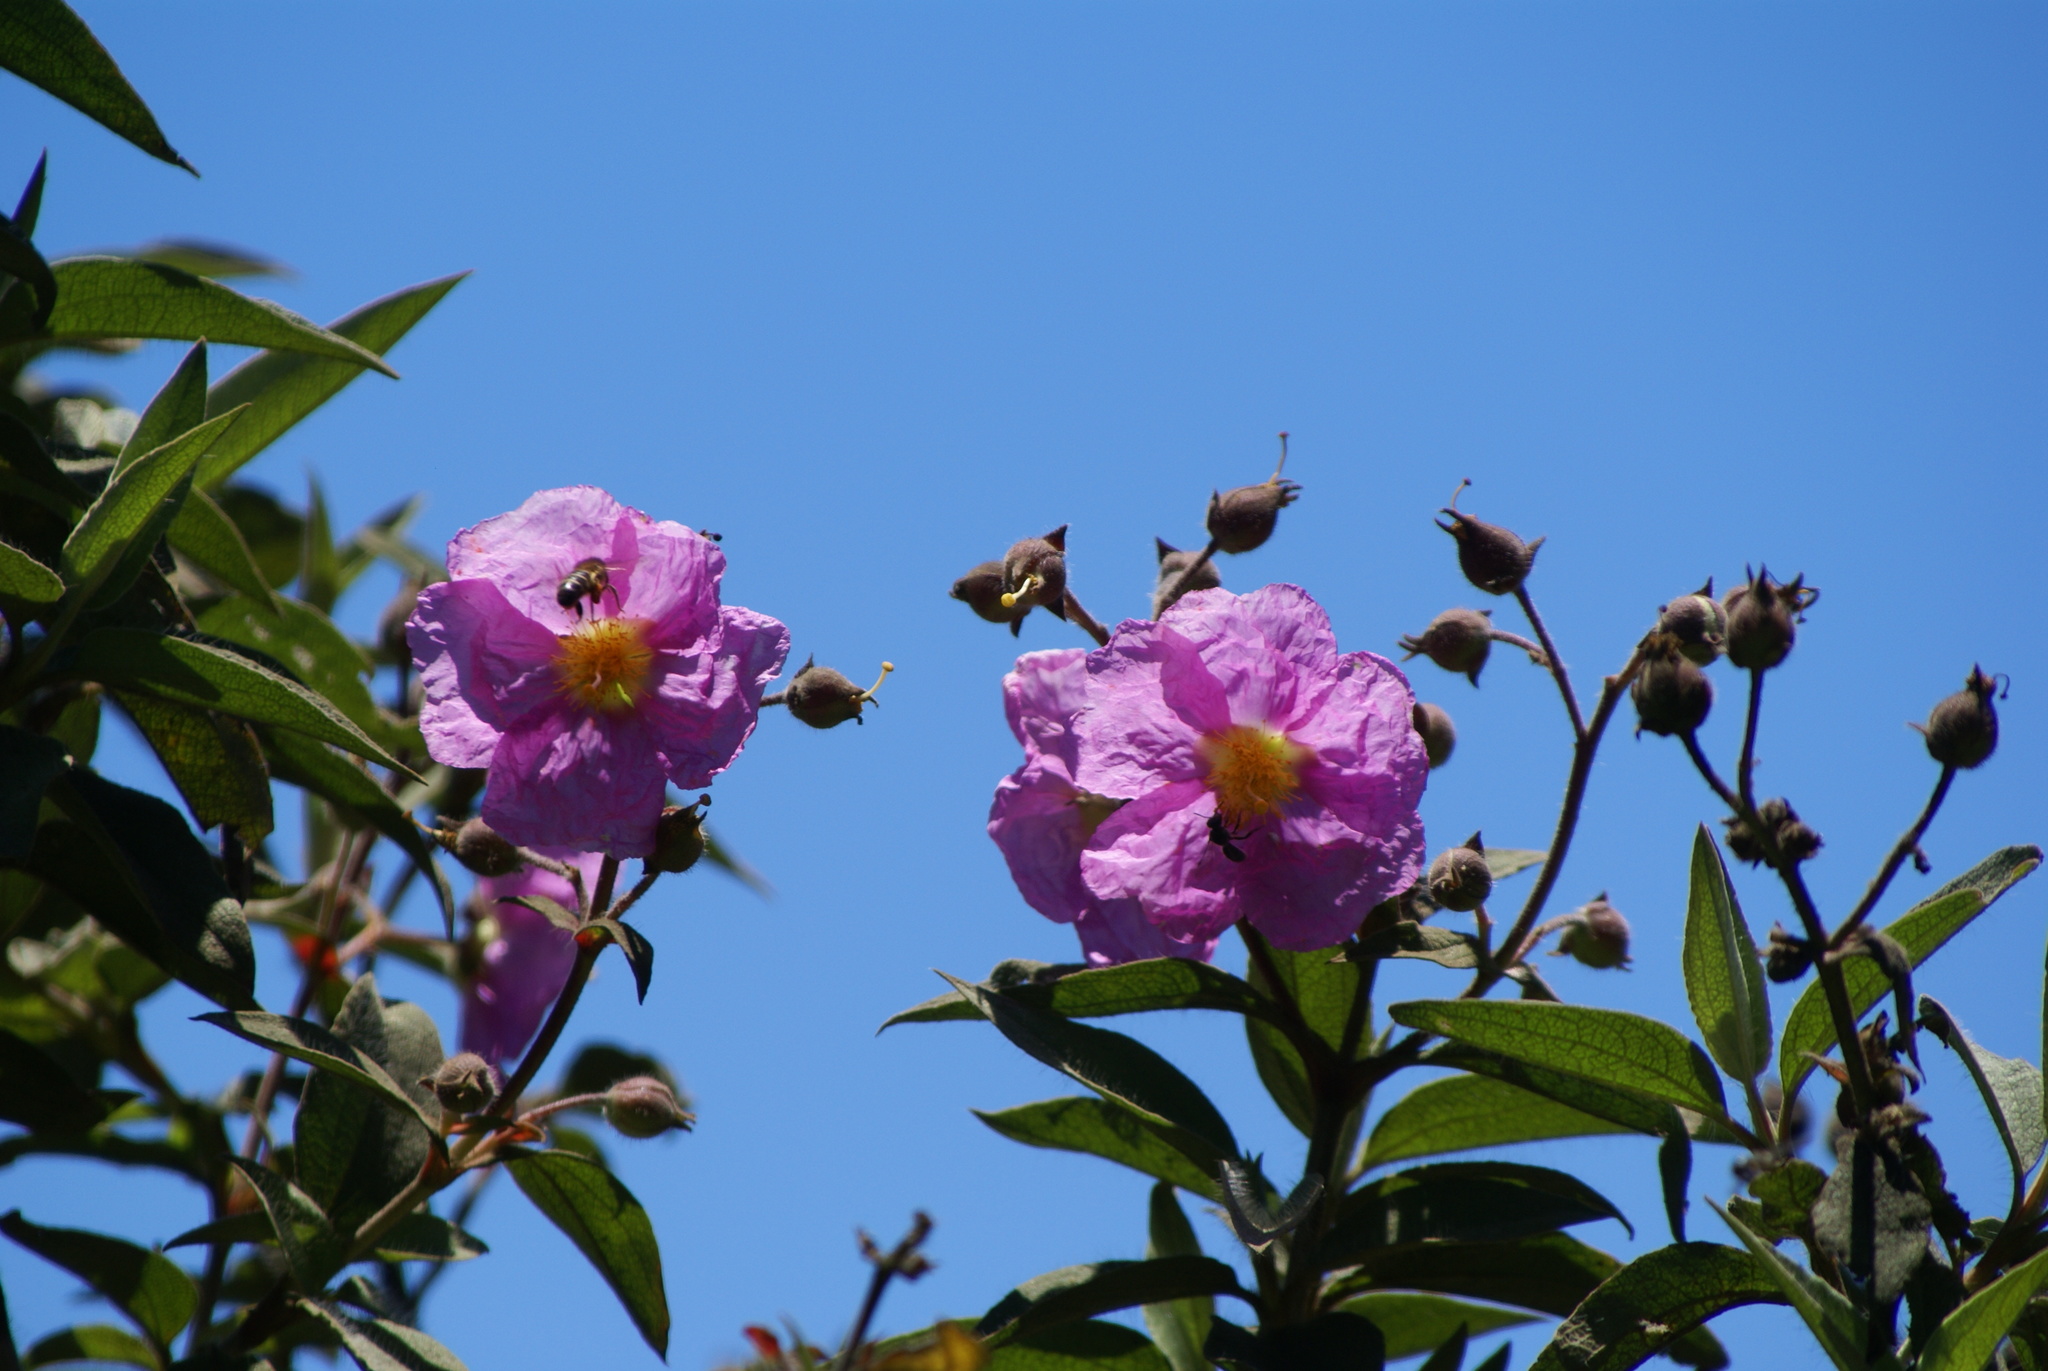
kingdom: Plantae
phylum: Tracheophyta
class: Magnoliopsida
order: Malvales
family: Cistaceae
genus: Cistus
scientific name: Cistus symphytifolius
